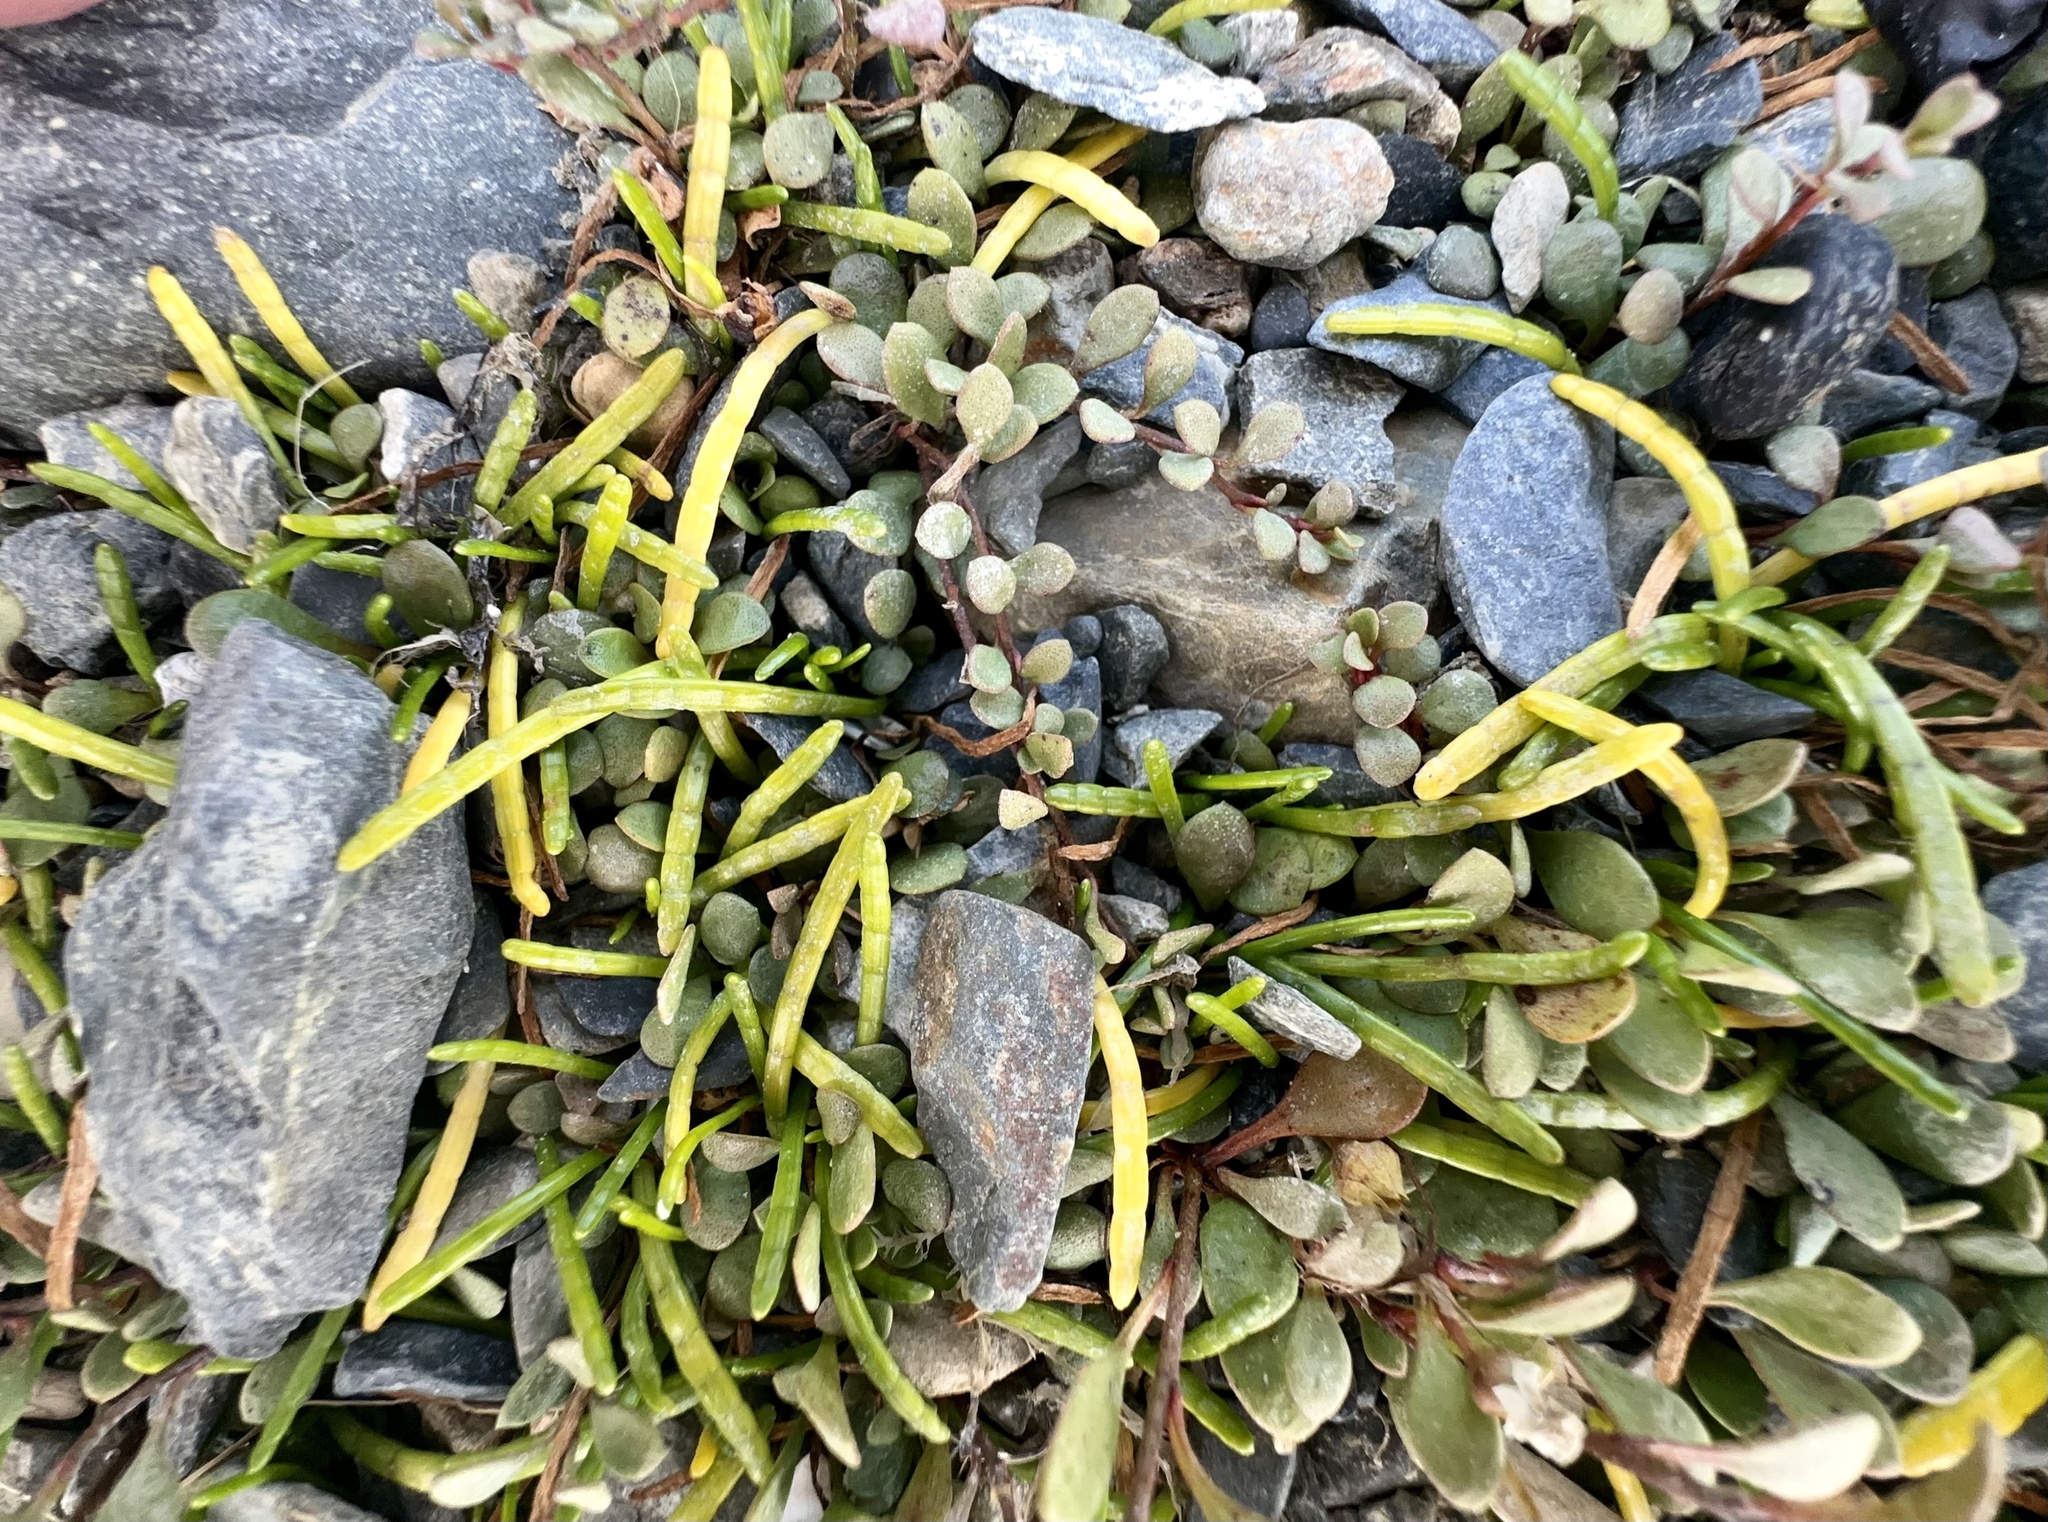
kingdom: Plantae
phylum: Tracheophyta
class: Magnoliopsida
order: Apiales
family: Apiaceae
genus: Lilaeopsis
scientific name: Lilaeopsis novae-zelandiae
